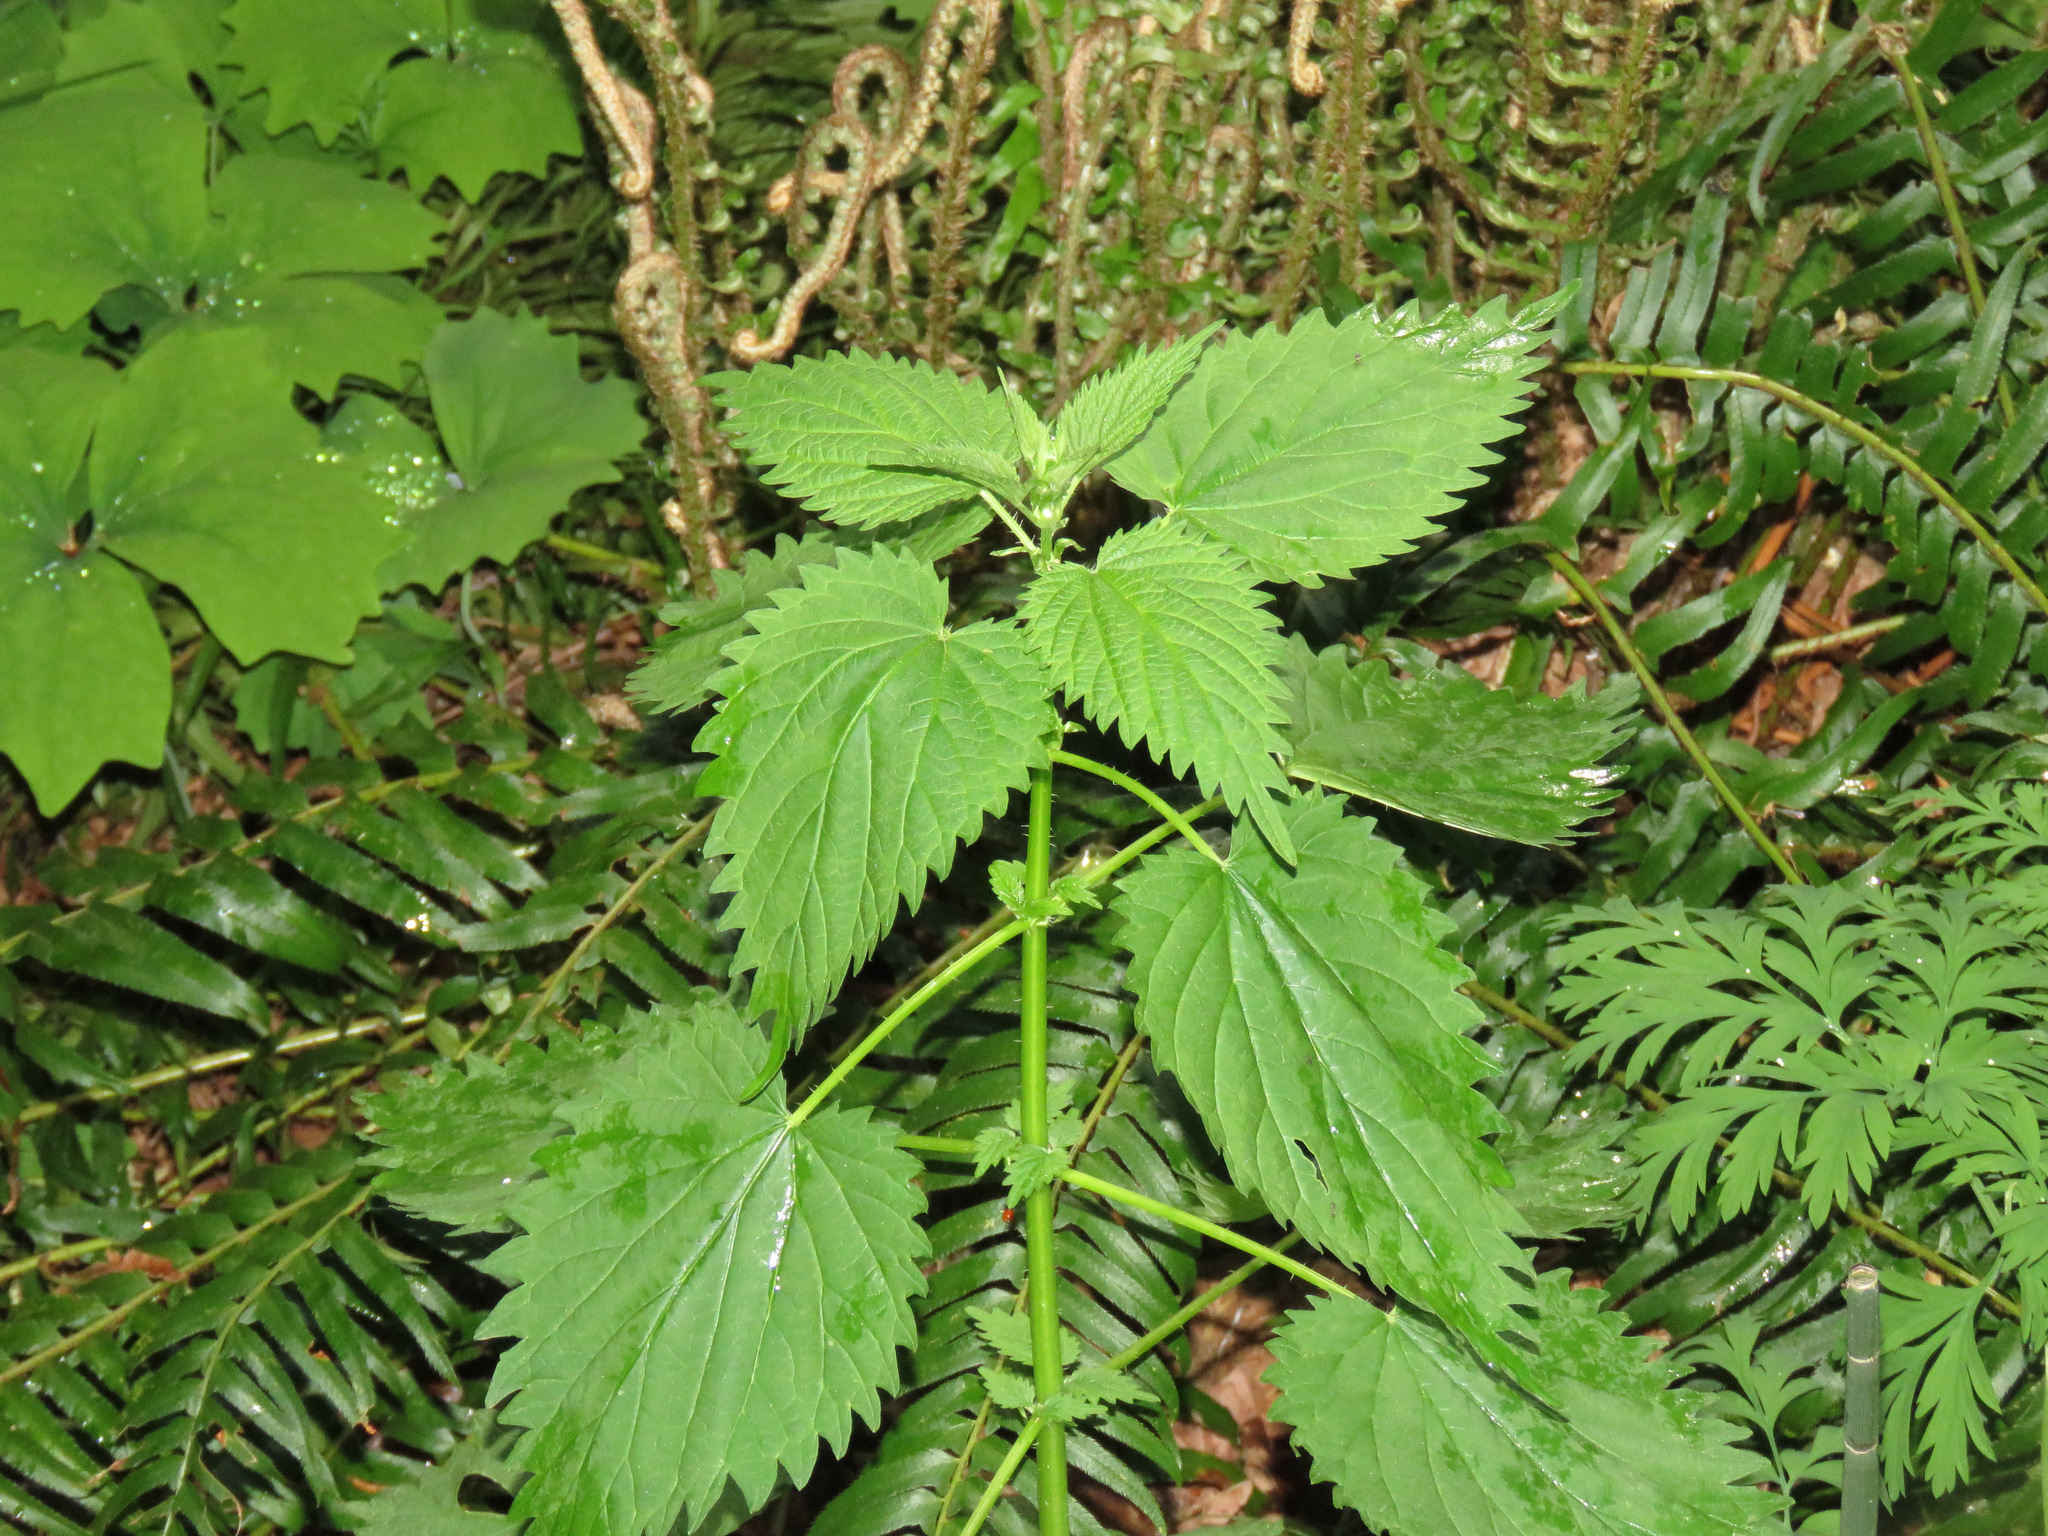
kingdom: Plantae
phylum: Tracheophyta
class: Magnoliopsida
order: Rosales
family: Urticaceae
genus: Urtica
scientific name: Urtica dioica
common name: Common nettle
